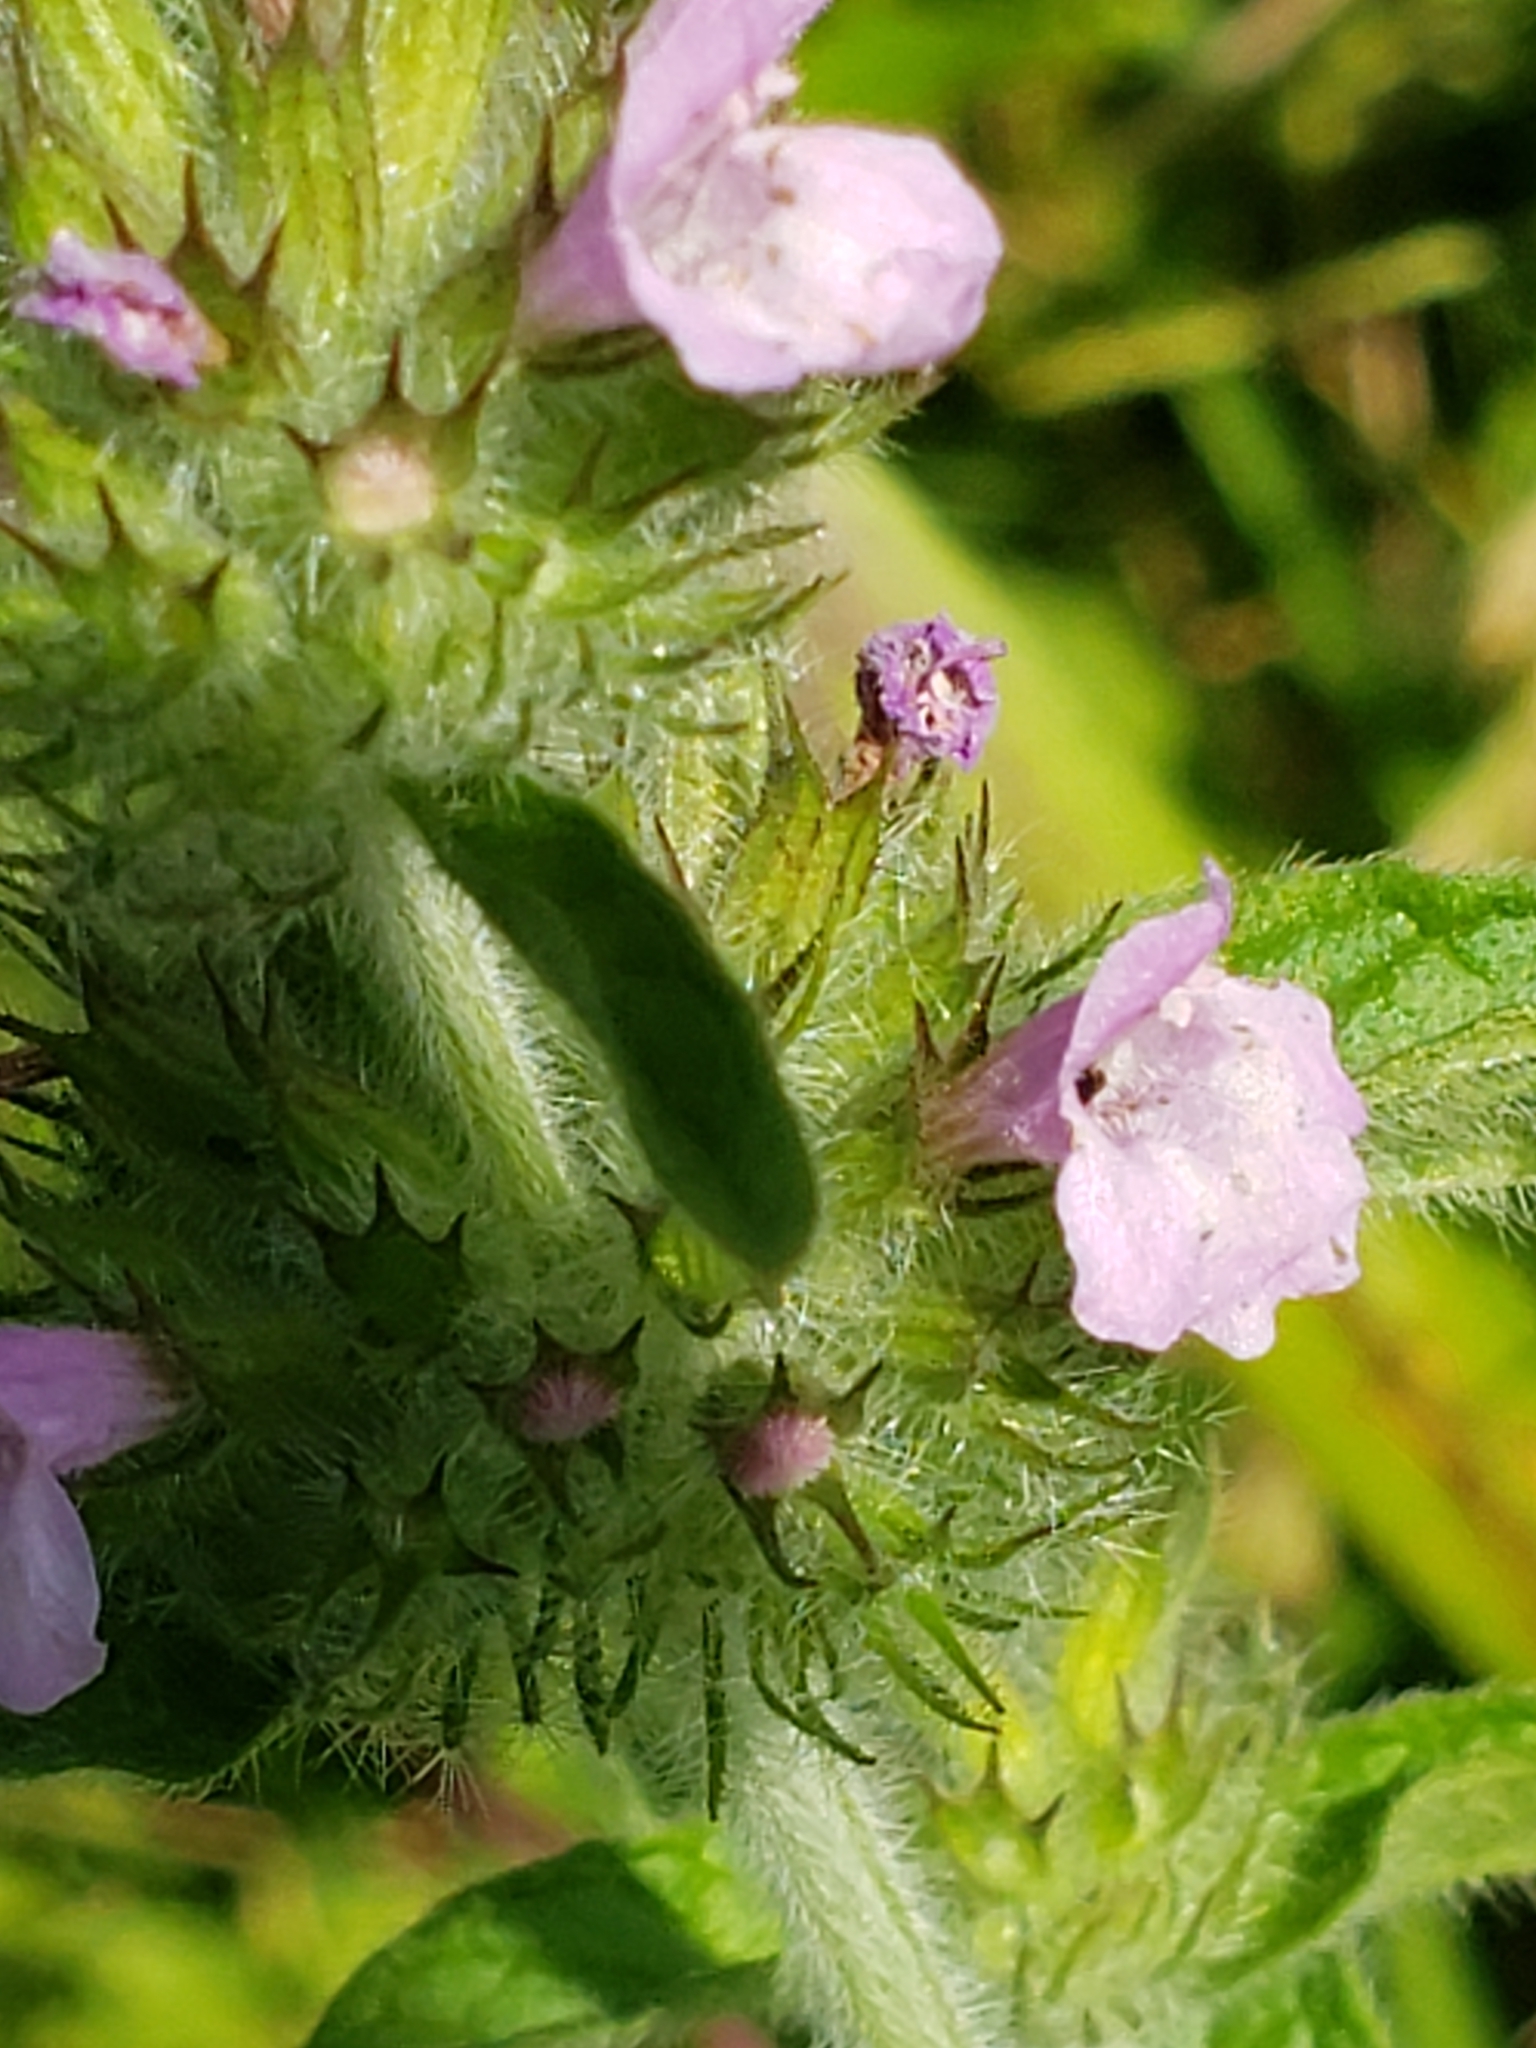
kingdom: Plantae
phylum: Tracheophyta
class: Magnoliopsida
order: Lamiales
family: Lamiaceae
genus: Clinopodium
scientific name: Clinopodium vulgare
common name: Wild basil
